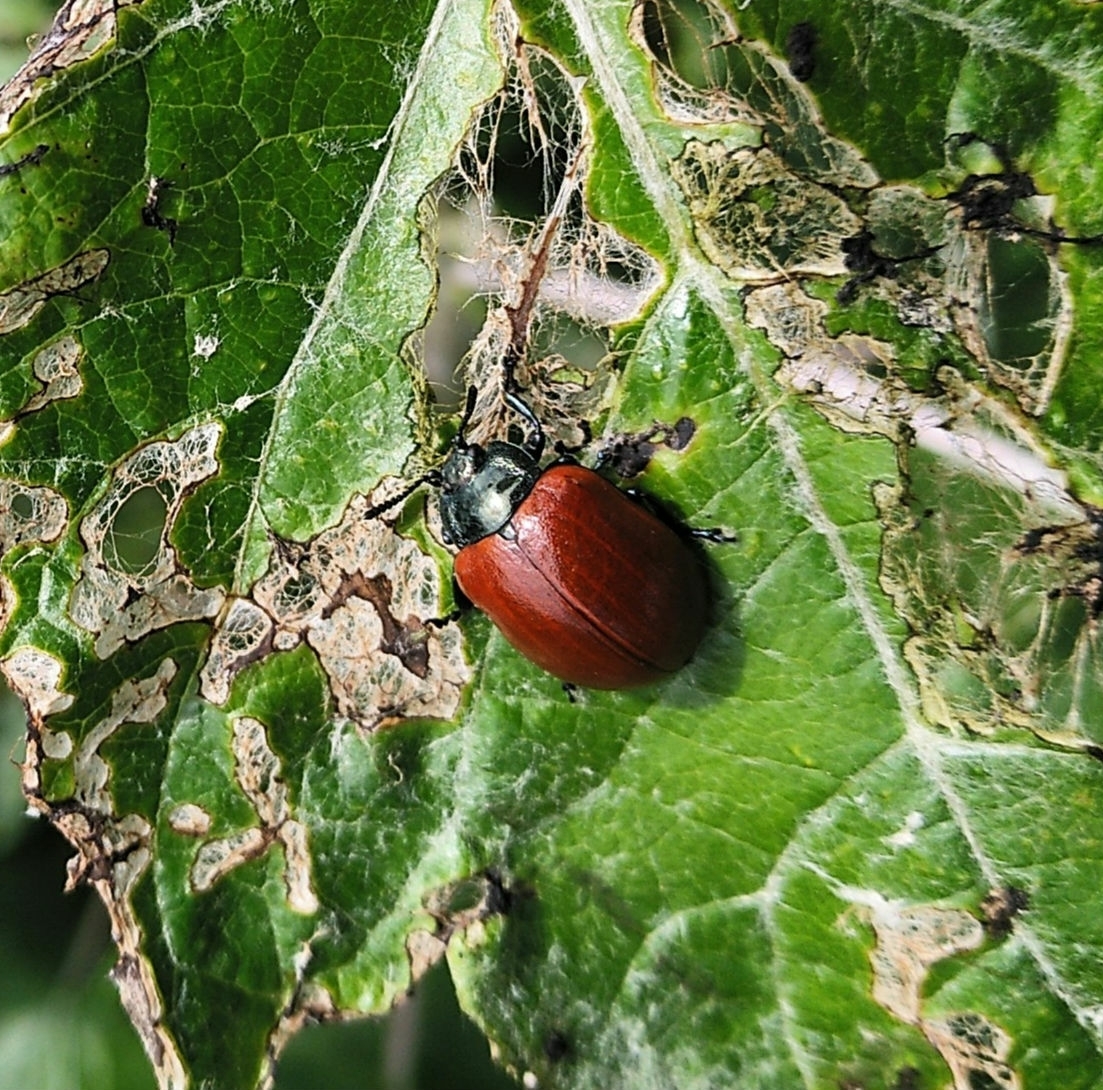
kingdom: Animalia
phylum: Arthropoda
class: Insecta
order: Coleoptera
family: Chrysomelidae
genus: Chrysomela
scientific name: Chrysomela populi
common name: Red poplar leaf beetle
